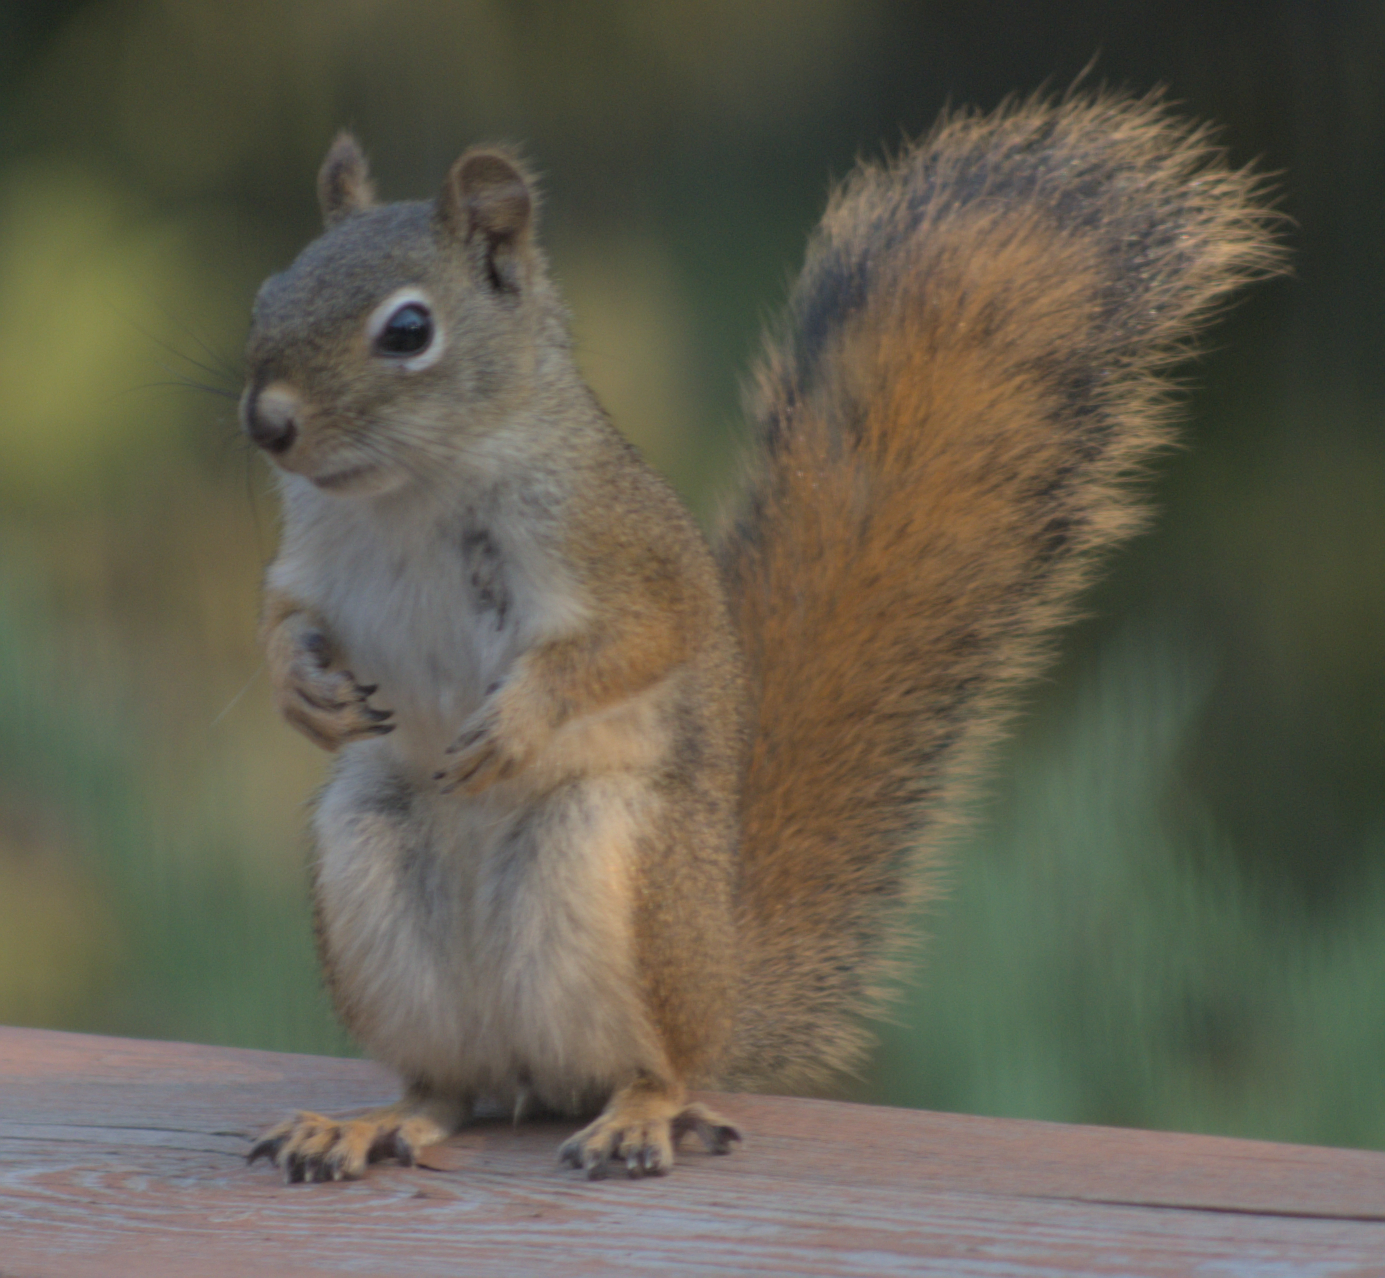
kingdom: Animalia
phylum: Chordata
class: Mammalia
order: Rodentia
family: Sciuridae
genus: Tamiasciurus
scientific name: Tamiasciurus hudsonicus
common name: Red squirrel
